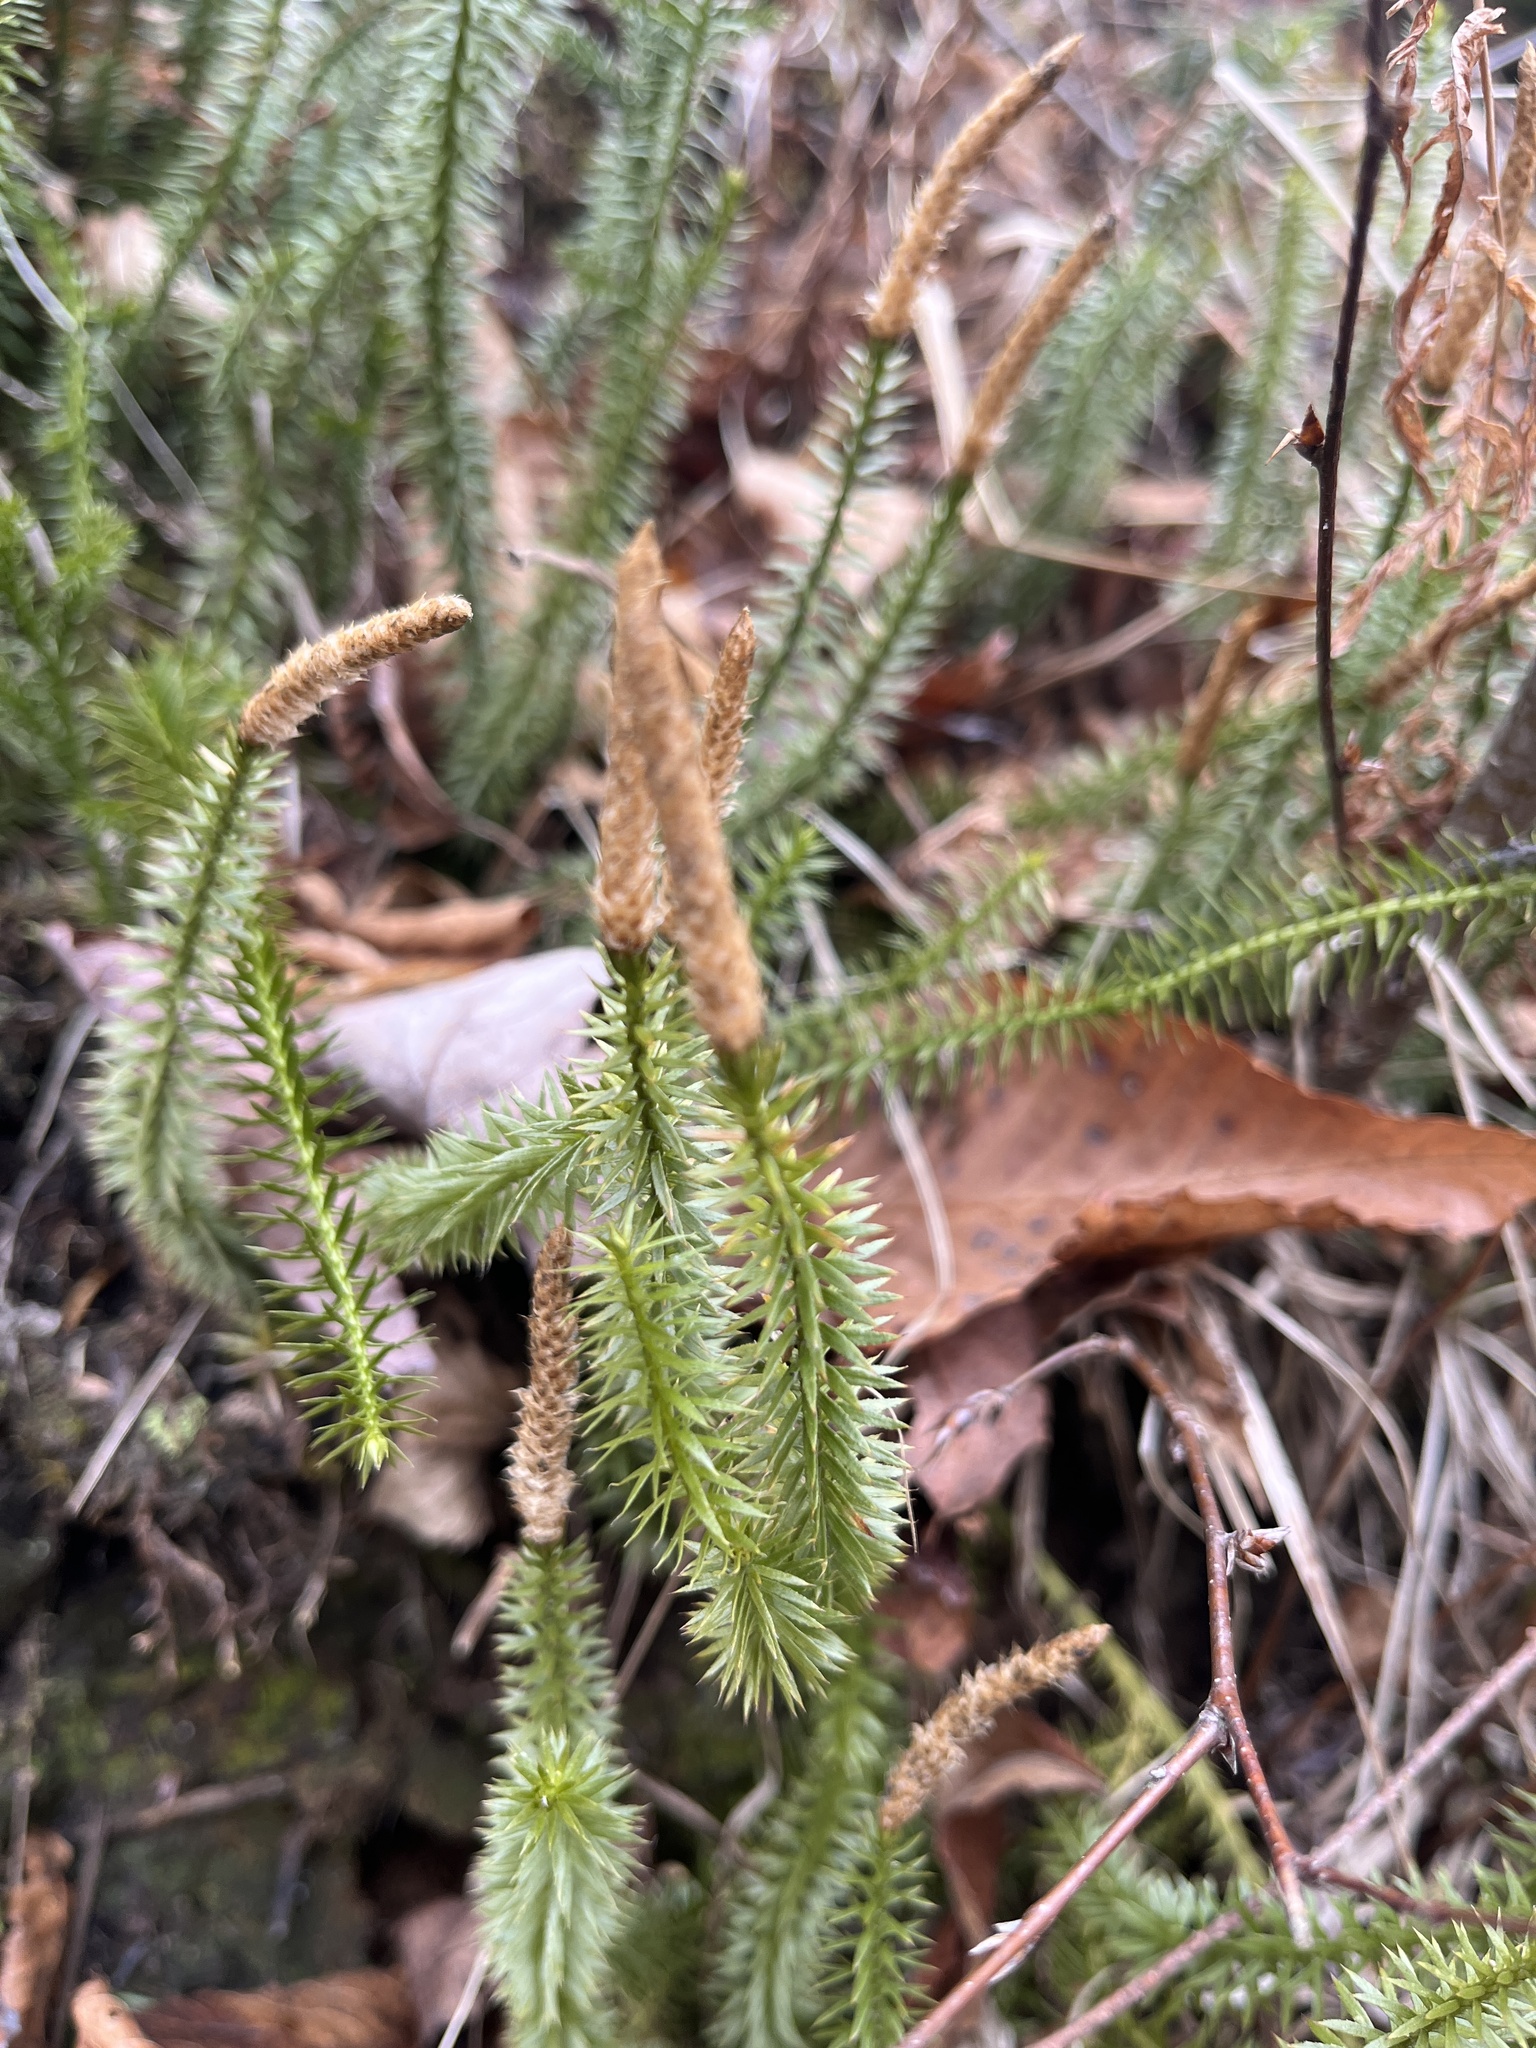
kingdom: Plantae
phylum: Tracheophyta
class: Lycopodiopsida
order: Lycopodiales
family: Lycopodiaceae
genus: Spinulum
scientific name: Spinulum annotinum
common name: Interrupted club-moss
